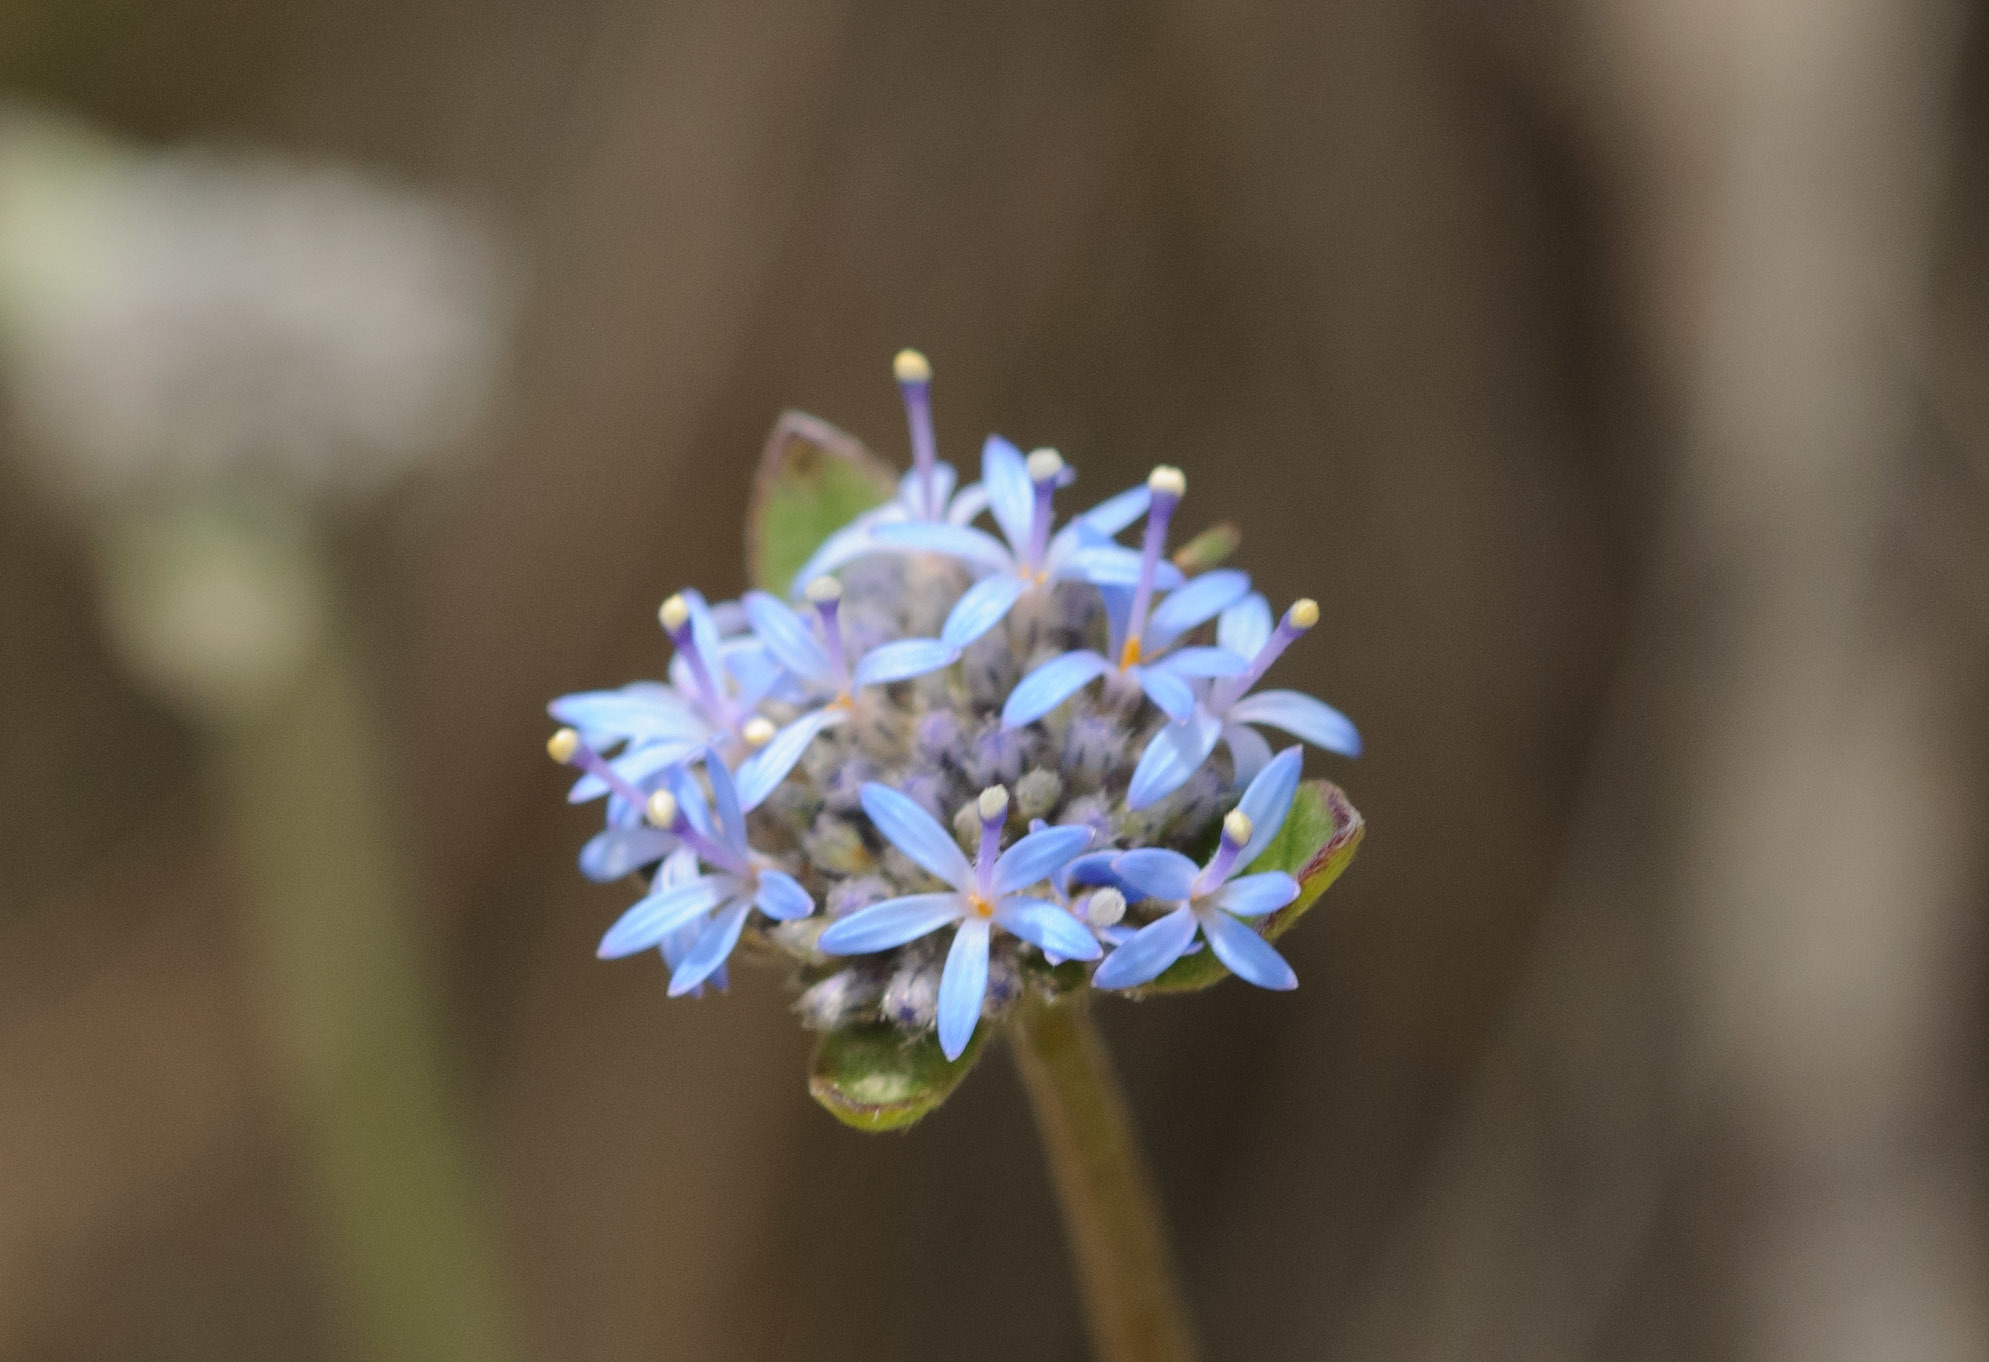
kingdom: Plantae
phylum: Tracheophyta
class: Magnoliopsida
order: Asterales
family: Goodeniaceae
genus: Brunonia
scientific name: Brunonia australis
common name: Blue pincushion
